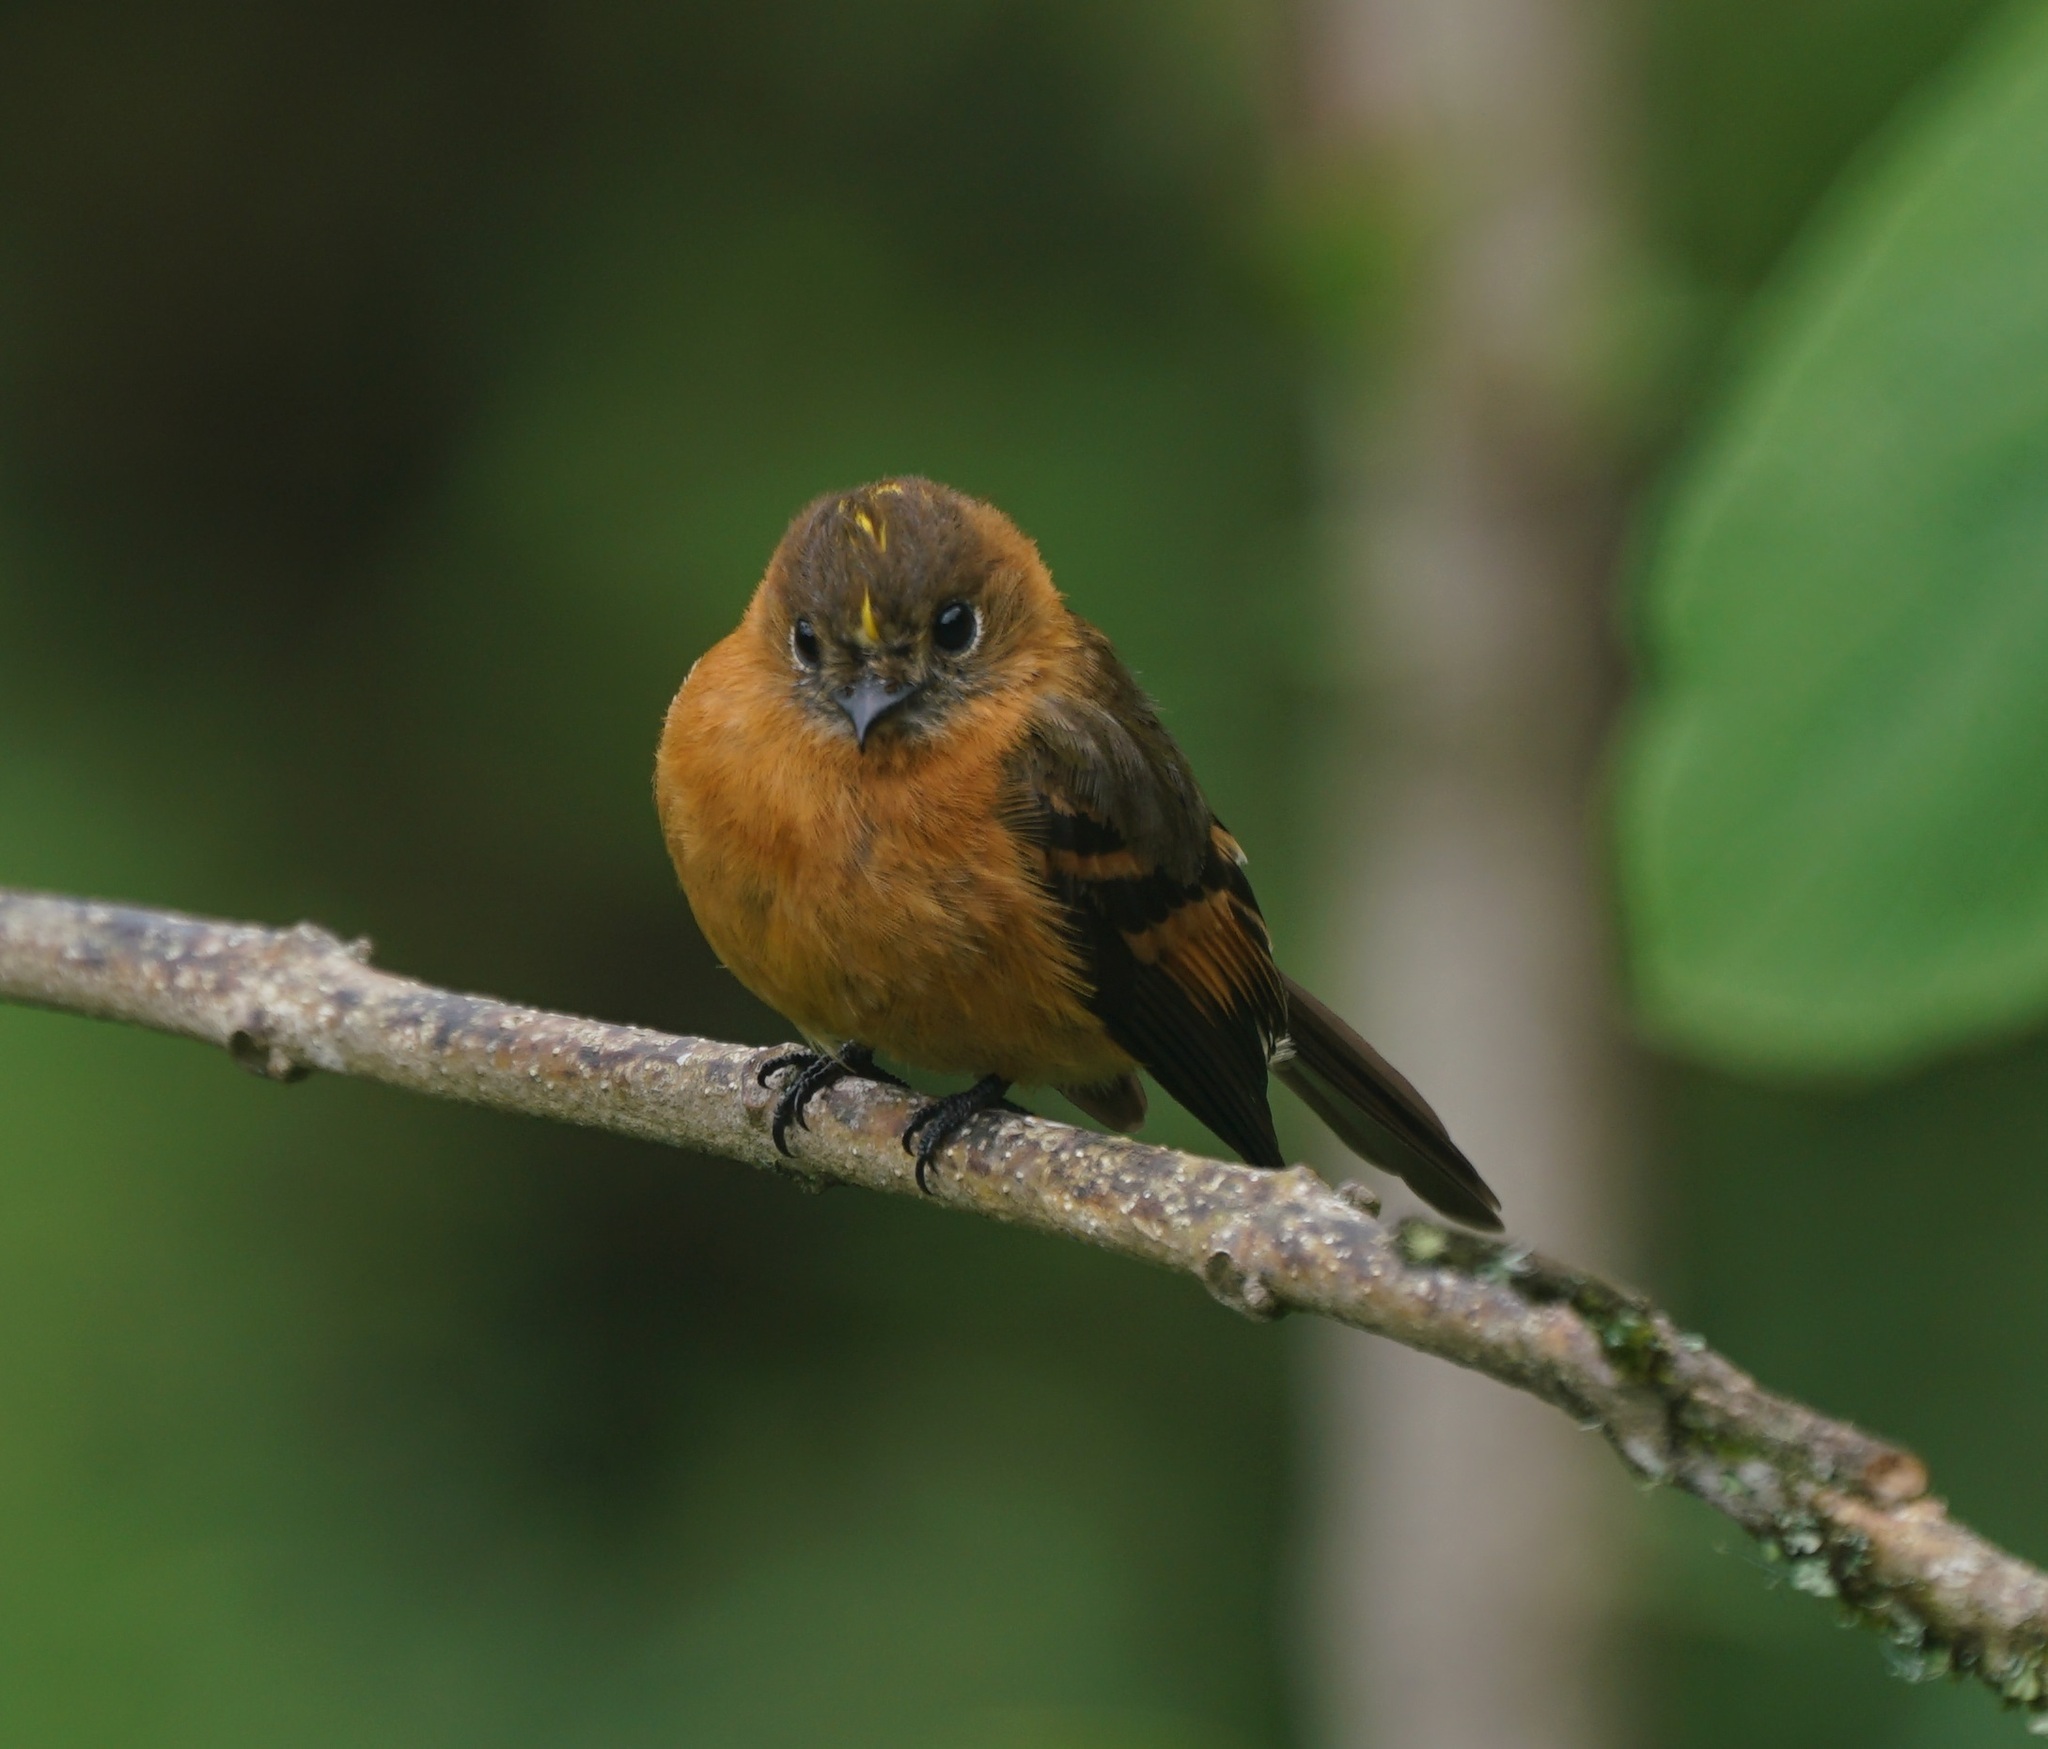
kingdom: Animalia
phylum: Chordata
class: Aves
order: Passeriformes
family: Tyrannidae
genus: Pyrrhomyias
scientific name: Pyrrhomyias cinnamomeus
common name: Cinnamon flycatcher
